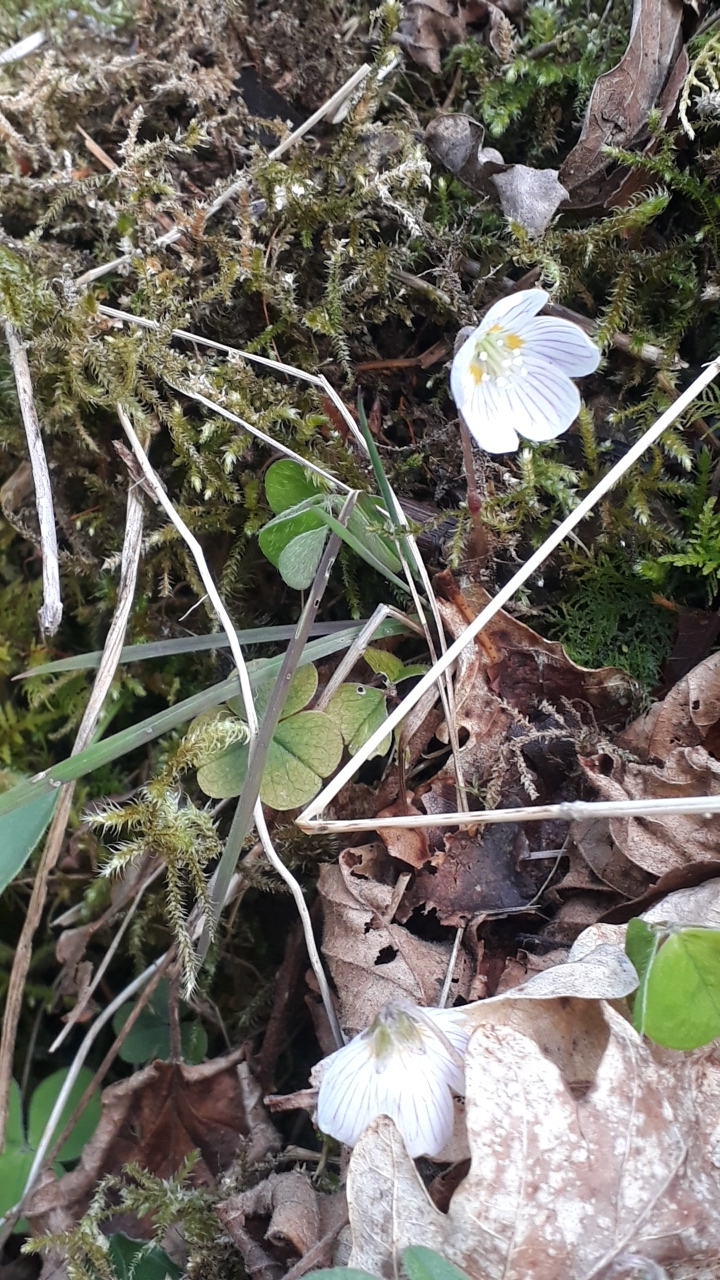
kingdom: Plantae
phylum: Tracheophyta
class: Magnoliopsida
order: Oxalidales
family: Oxalidaceae
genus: Oxalis
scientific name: Oxalis acetosella
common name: Wood-sorrel
